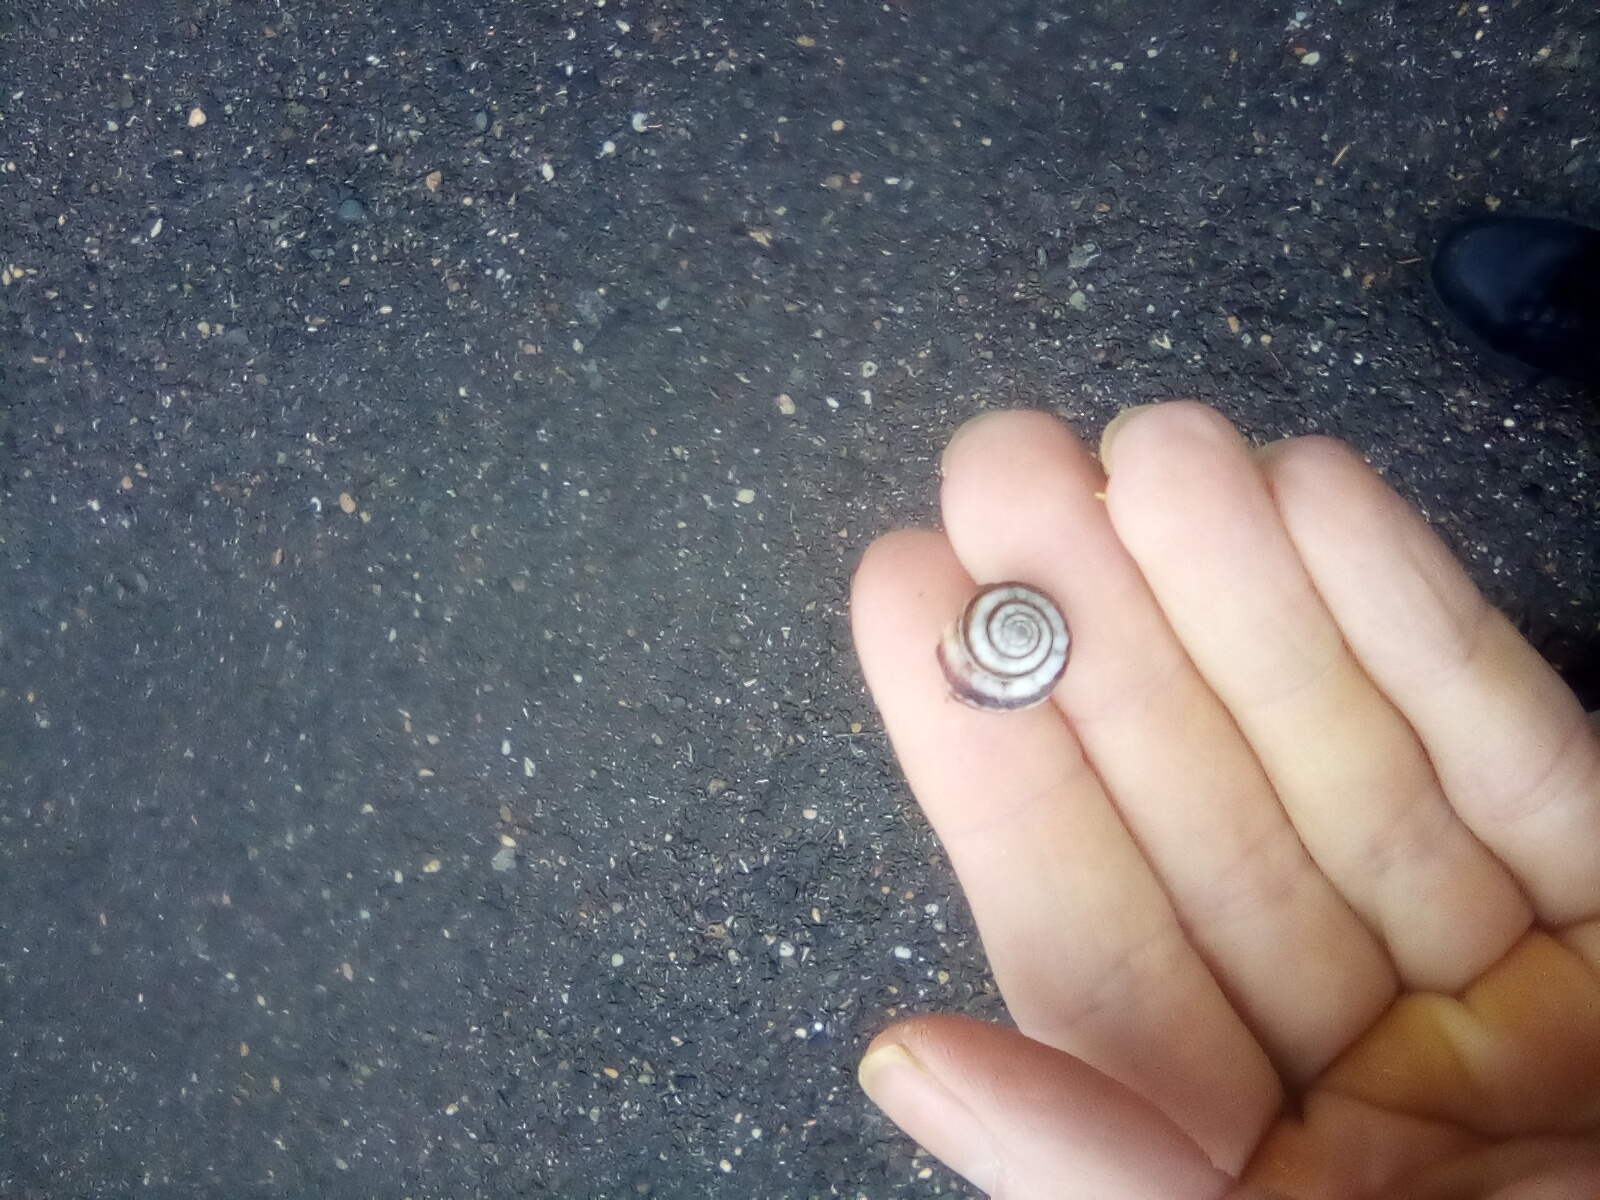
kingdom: Animalia
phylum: Mollusca
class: Gastropoda
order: Stylommatophora
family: Geomitridae
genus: Xeropicta
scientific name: Xeropicta krynickii
